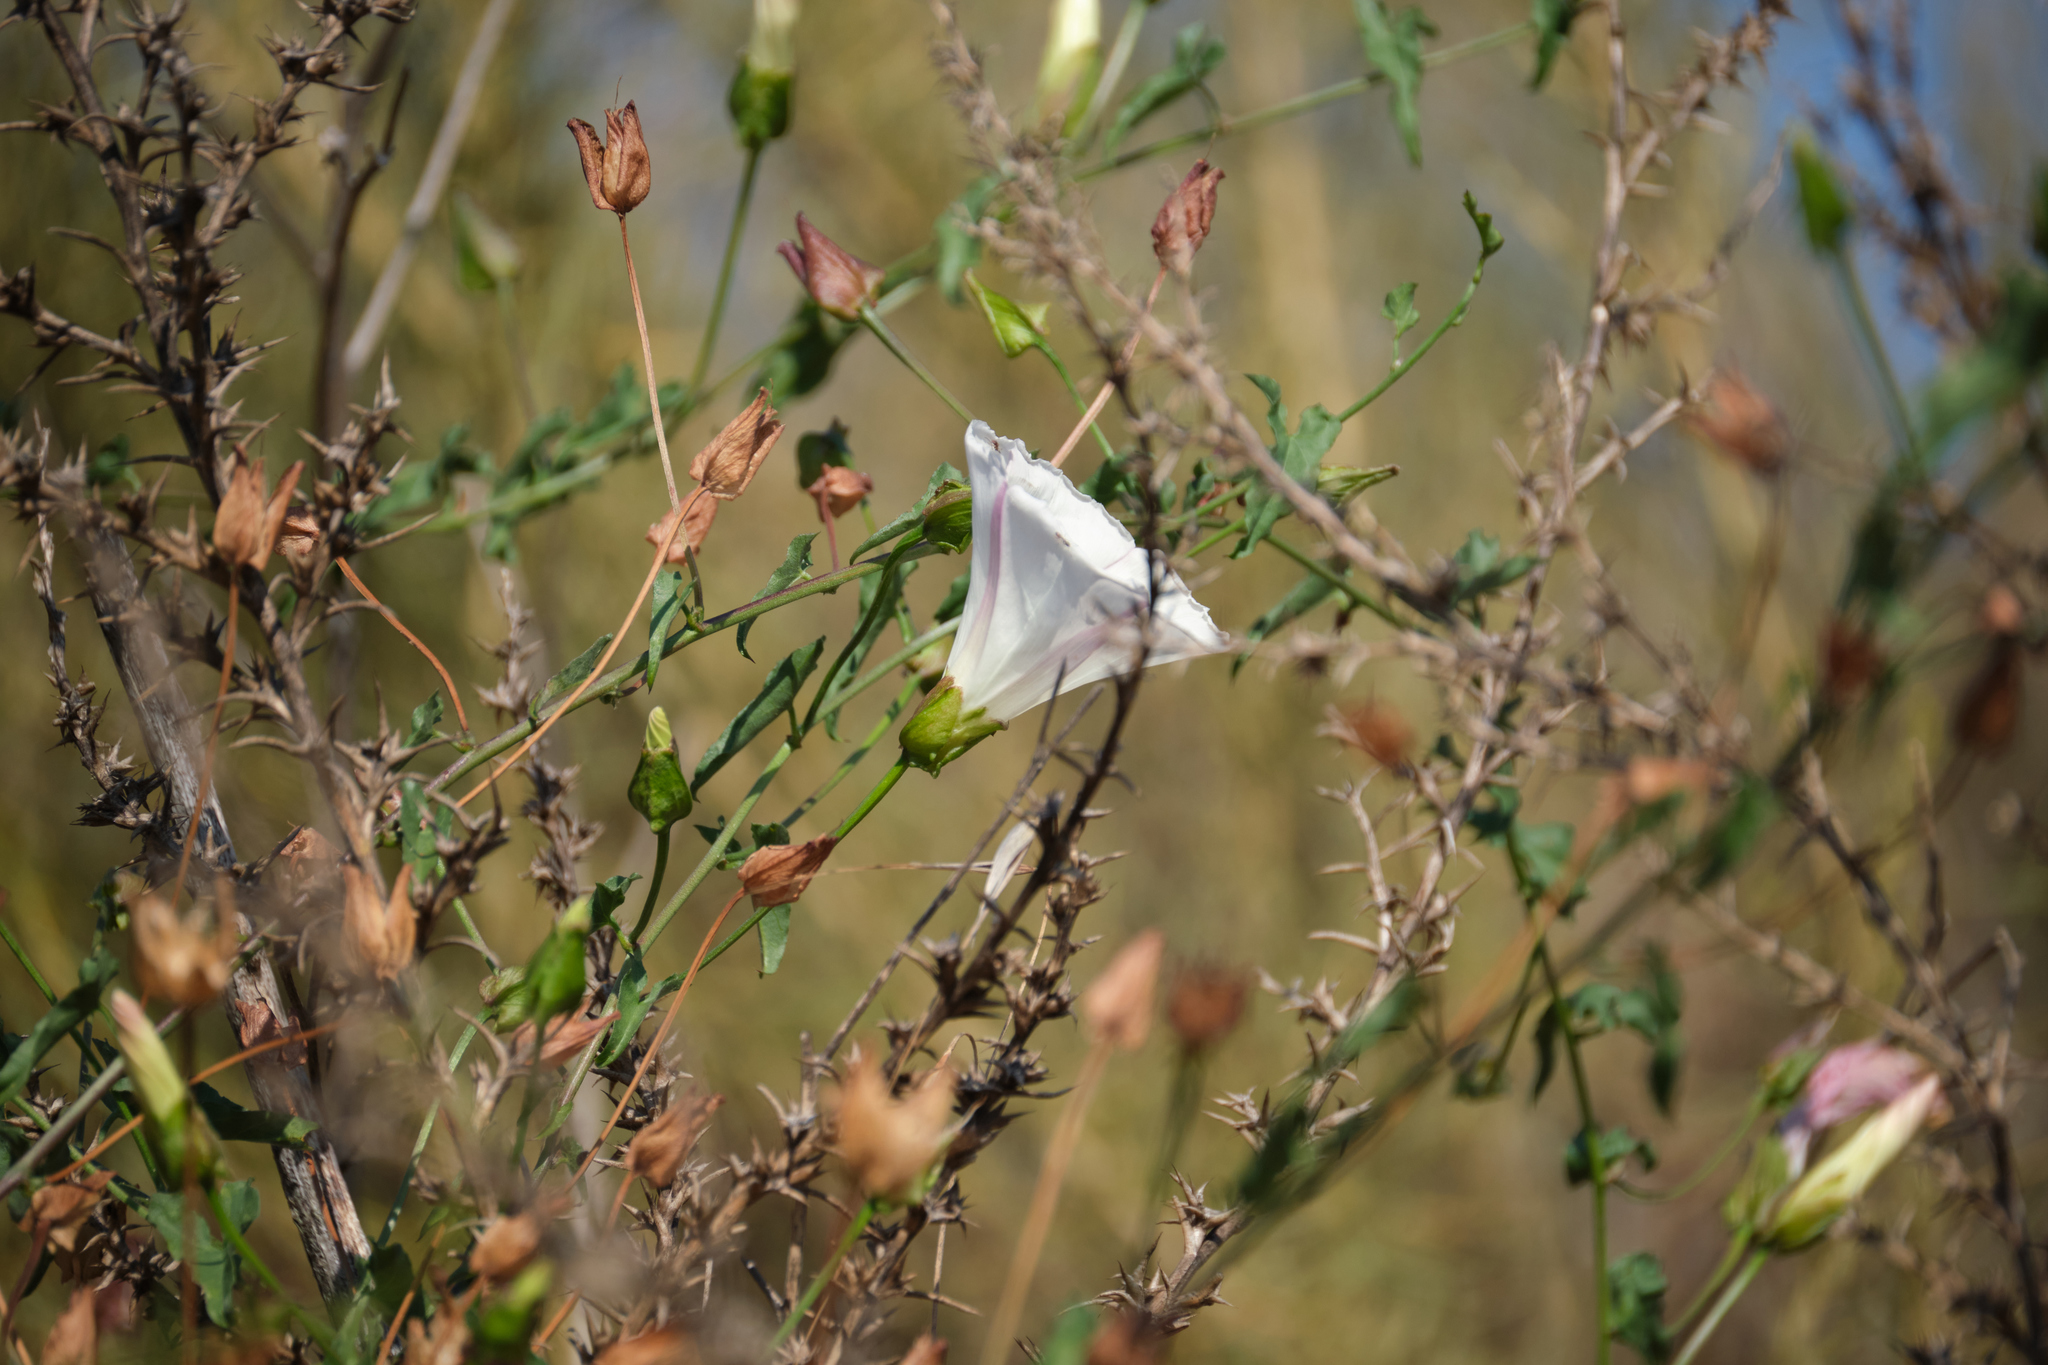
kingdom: Plantae
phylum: Tracheophyta
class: Magnoliopsida
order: Solanales
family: Convolvulaceae
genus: Calystegia
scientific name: Calystegia macrostegia
